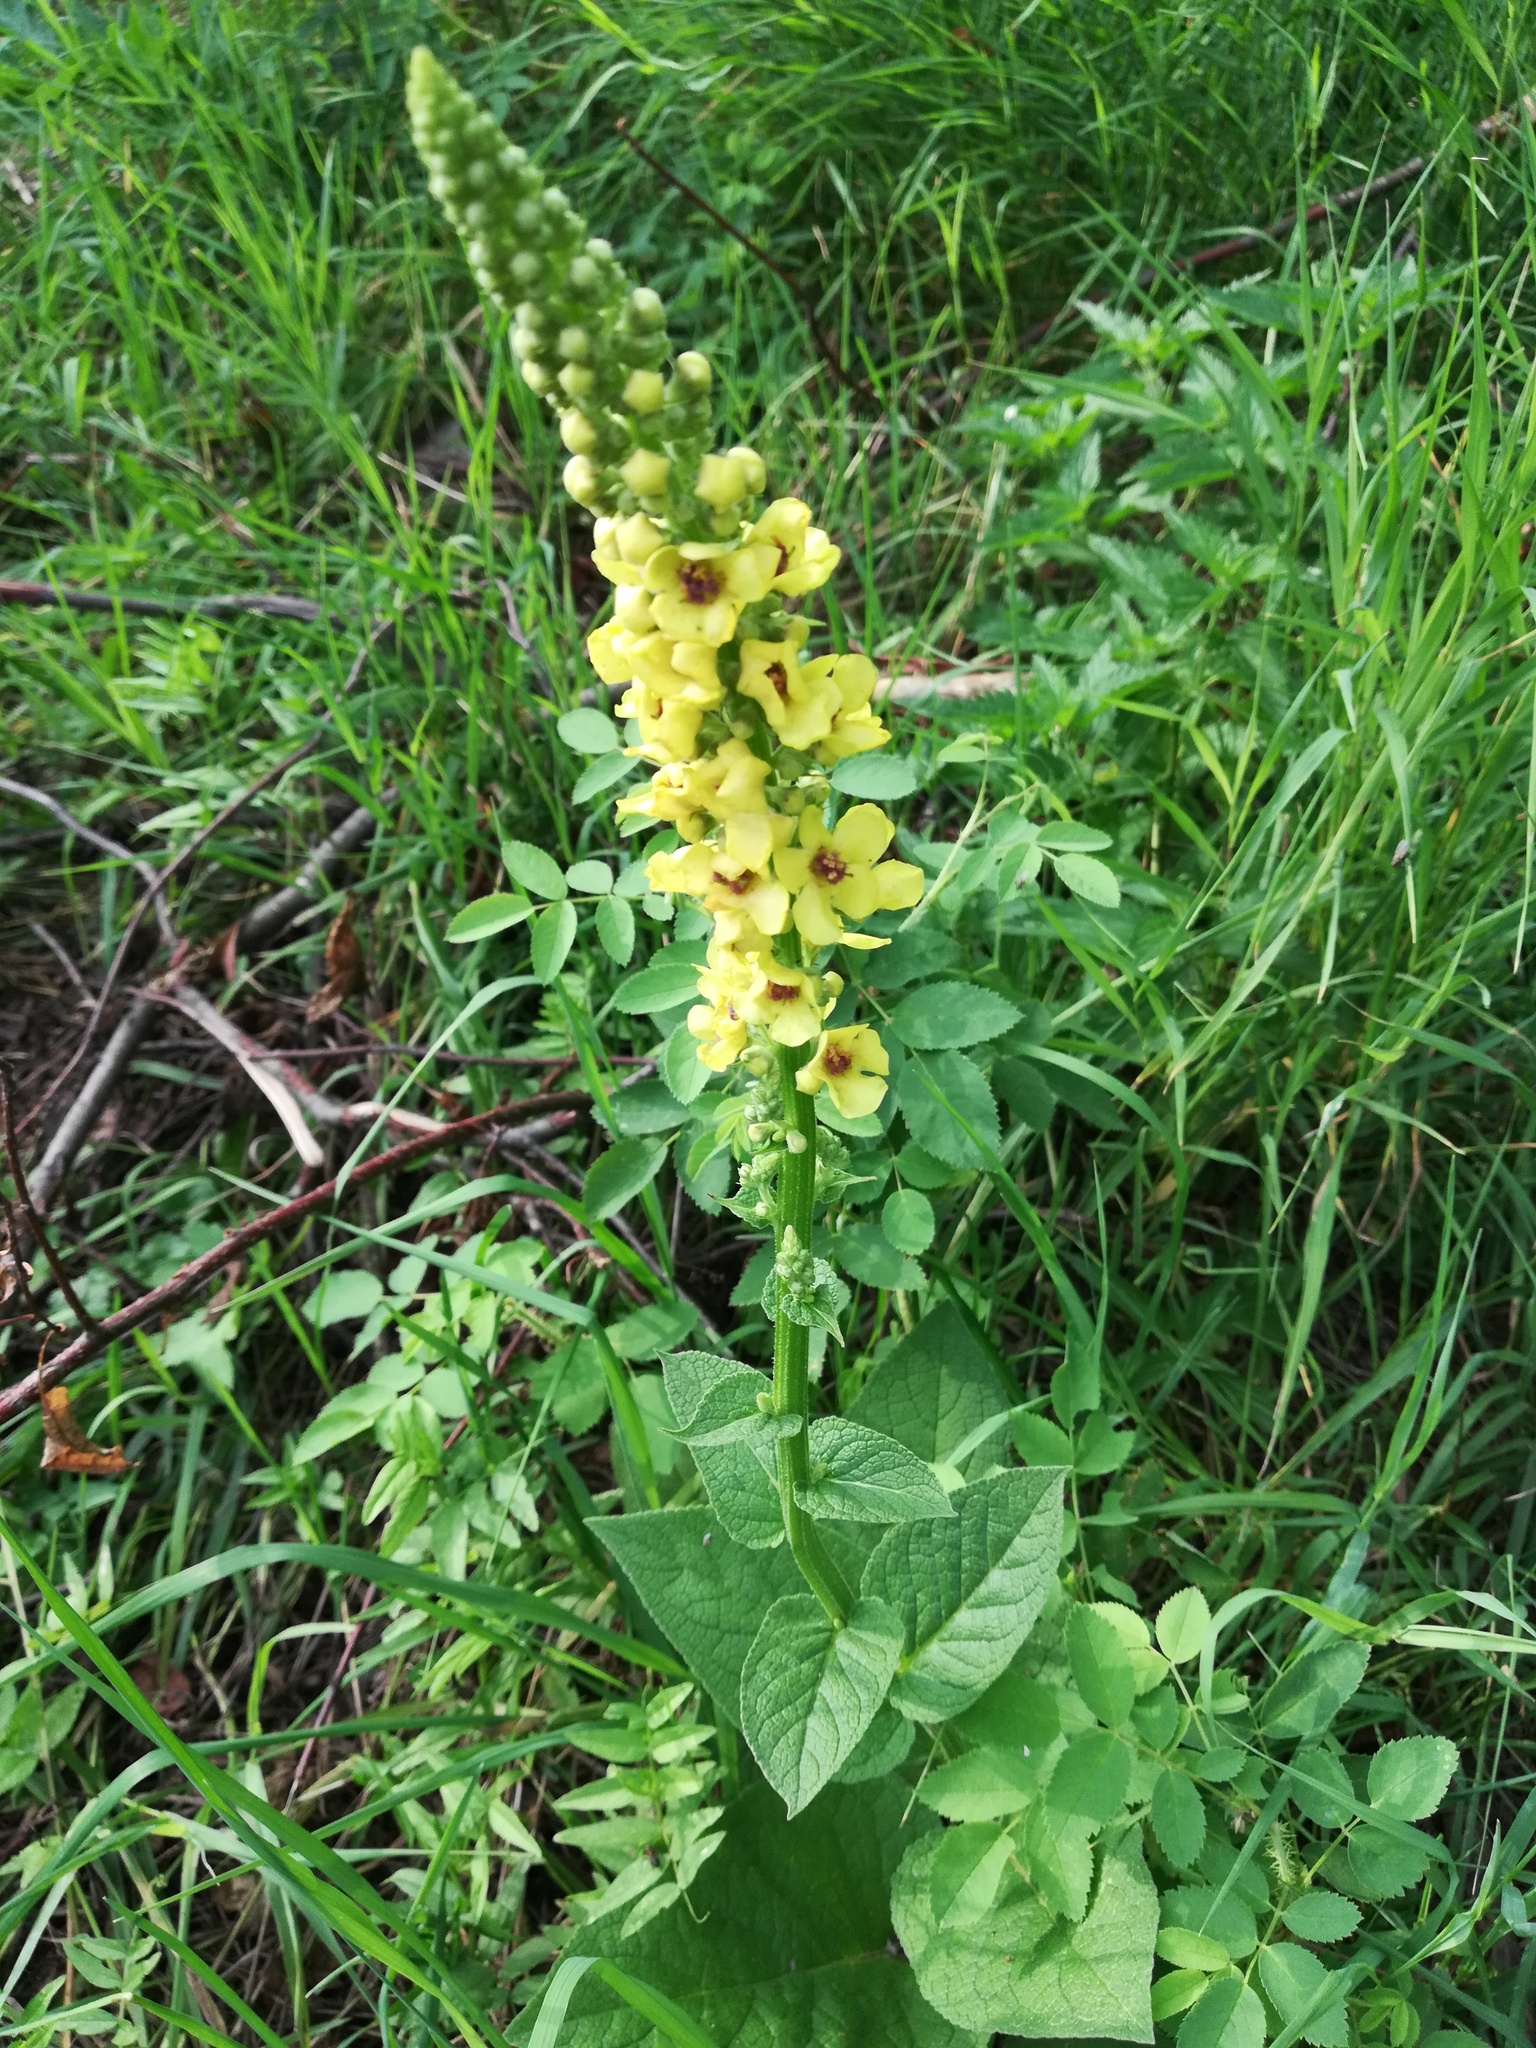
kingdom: Plantae
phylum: Tracheophyta
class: Magnoliopsida
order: Lamiales
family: Scrophulariaceae
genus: Verbascum
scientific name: Verbascum nigrum
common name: Dark mullein
